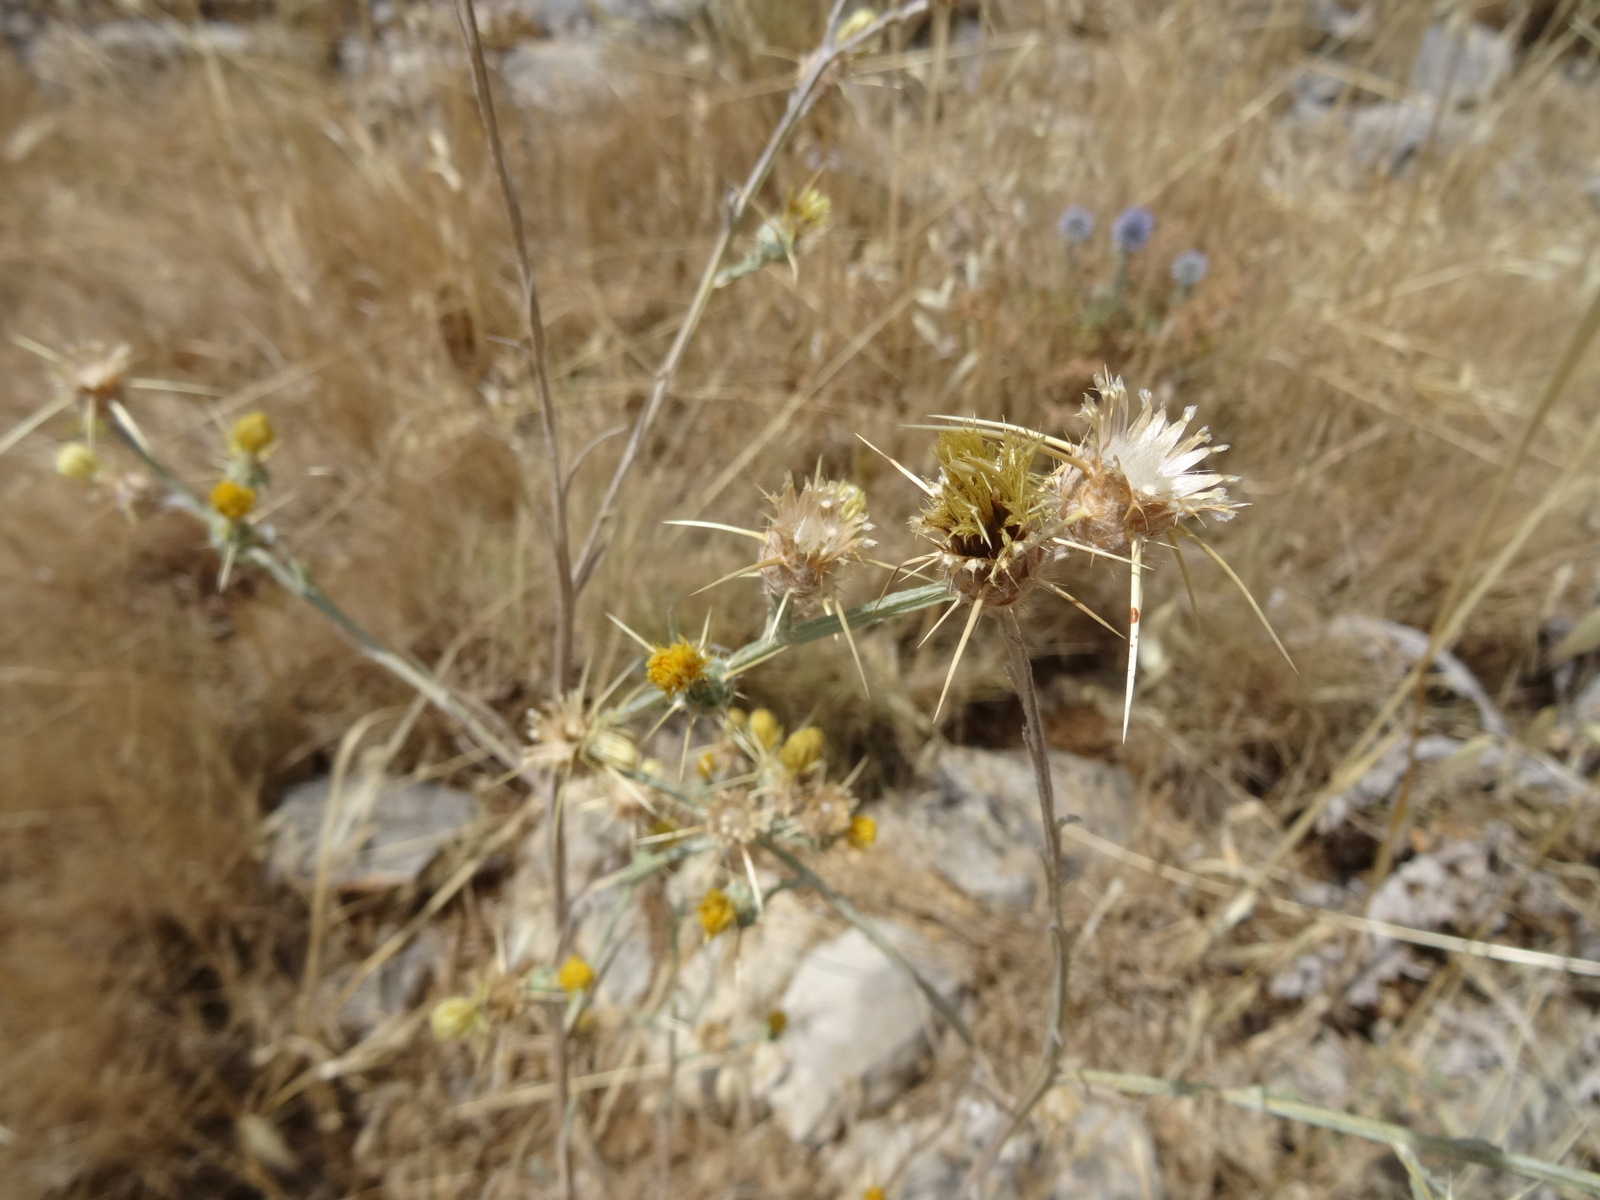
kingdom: Plantae
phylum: Tracheophyta
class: Magnoliopsida
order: Asterales
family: Asteraceae
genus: Centaurea
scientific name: Centaurea solstitialis
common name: Yellow star-thistle
